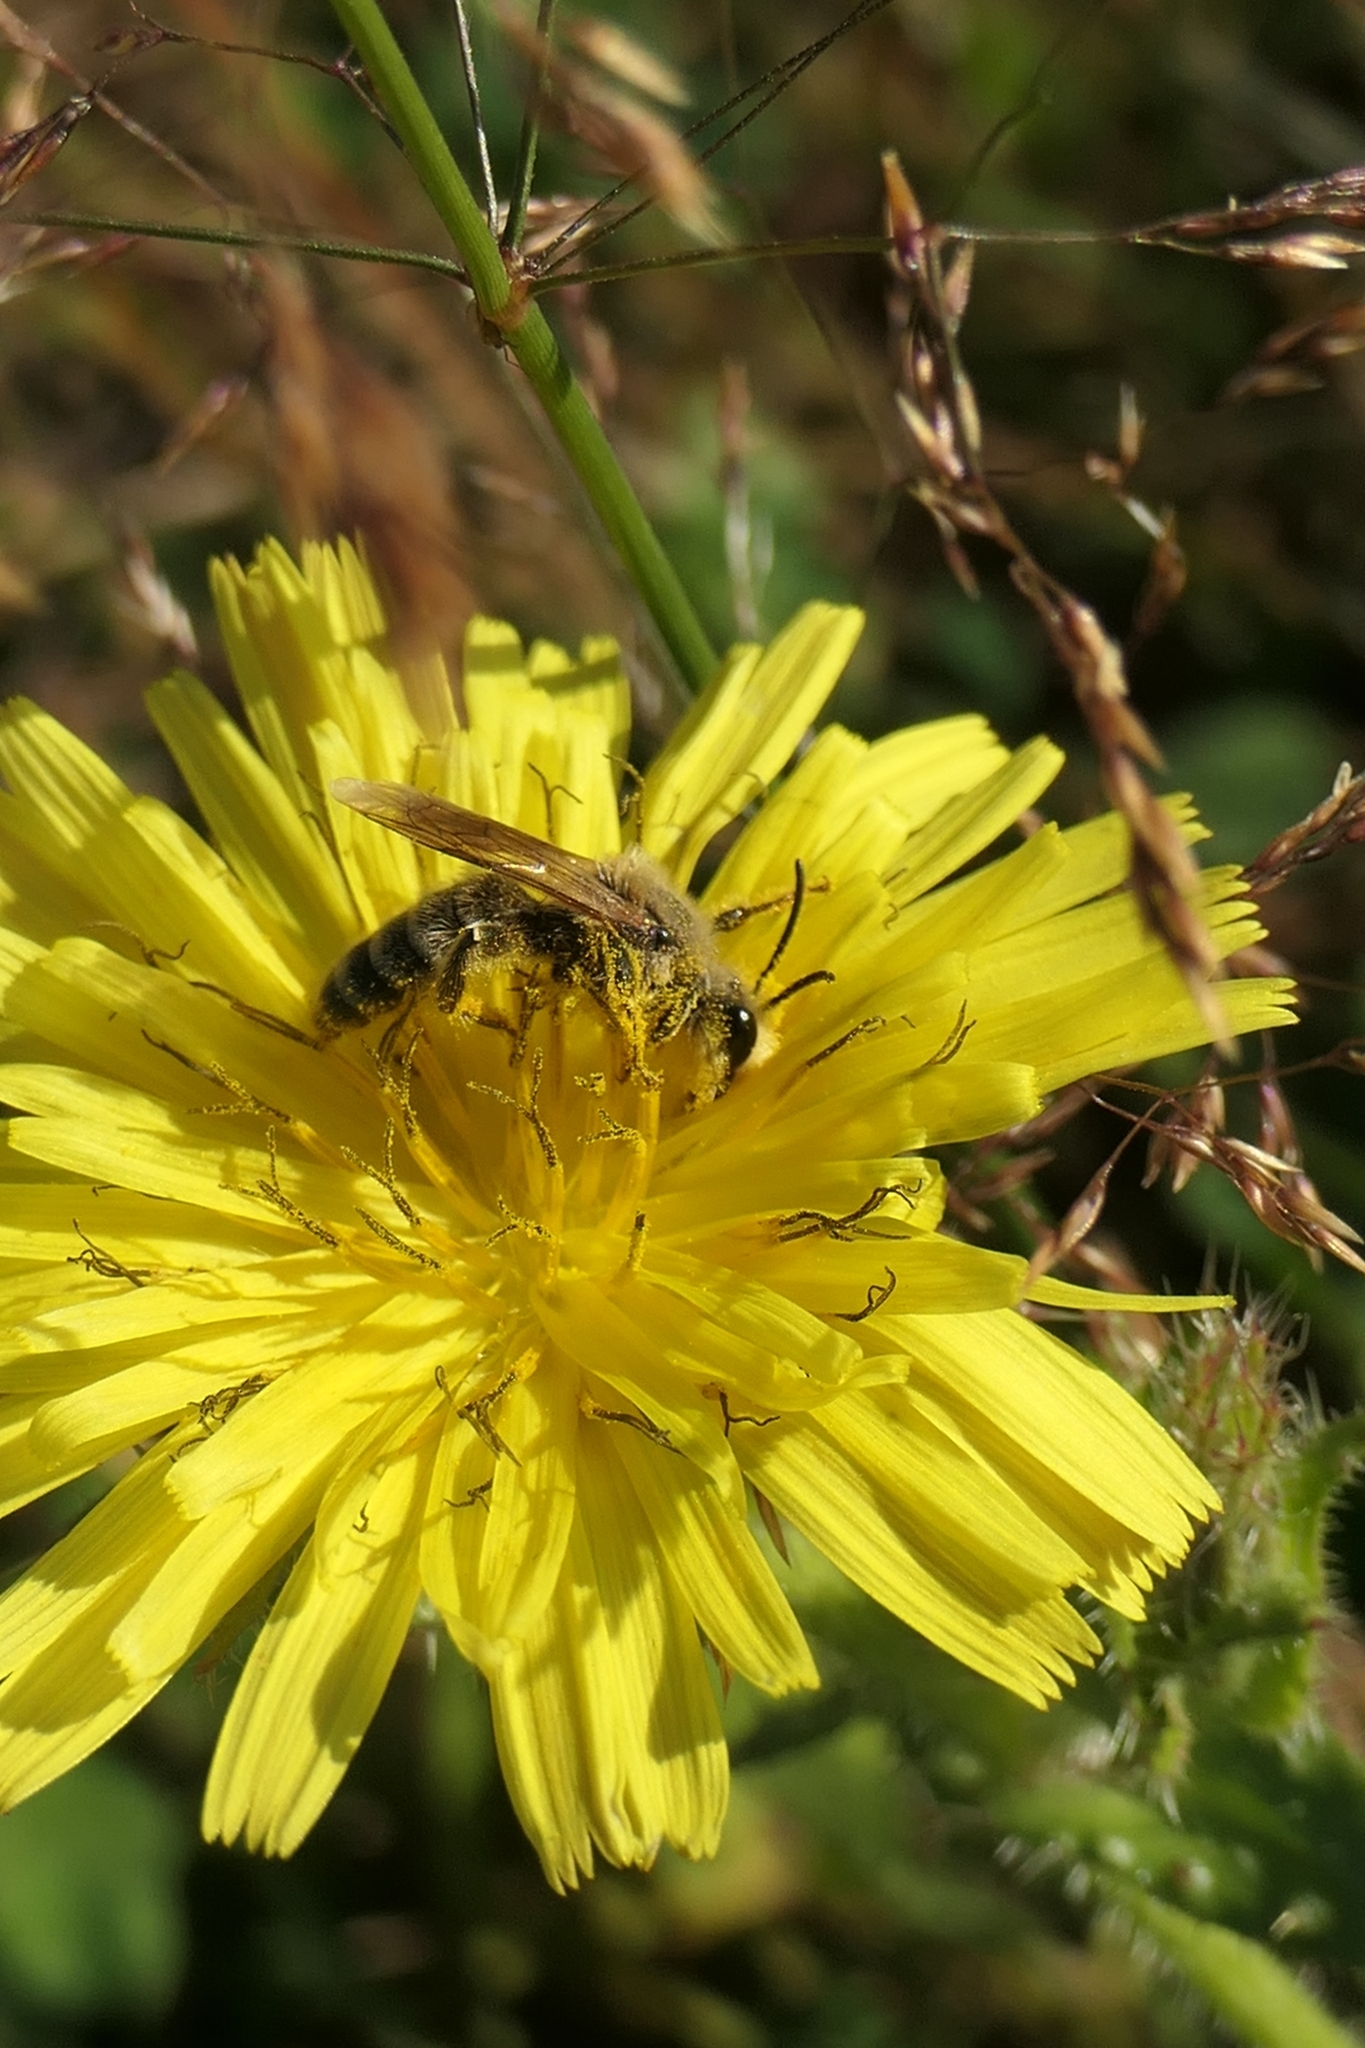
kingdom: Animalia
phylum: Arthropoda
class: Insecta
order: Hymenoptera
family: Colletidae
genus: Leioproctus
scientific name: Leioproctus fulvescens
